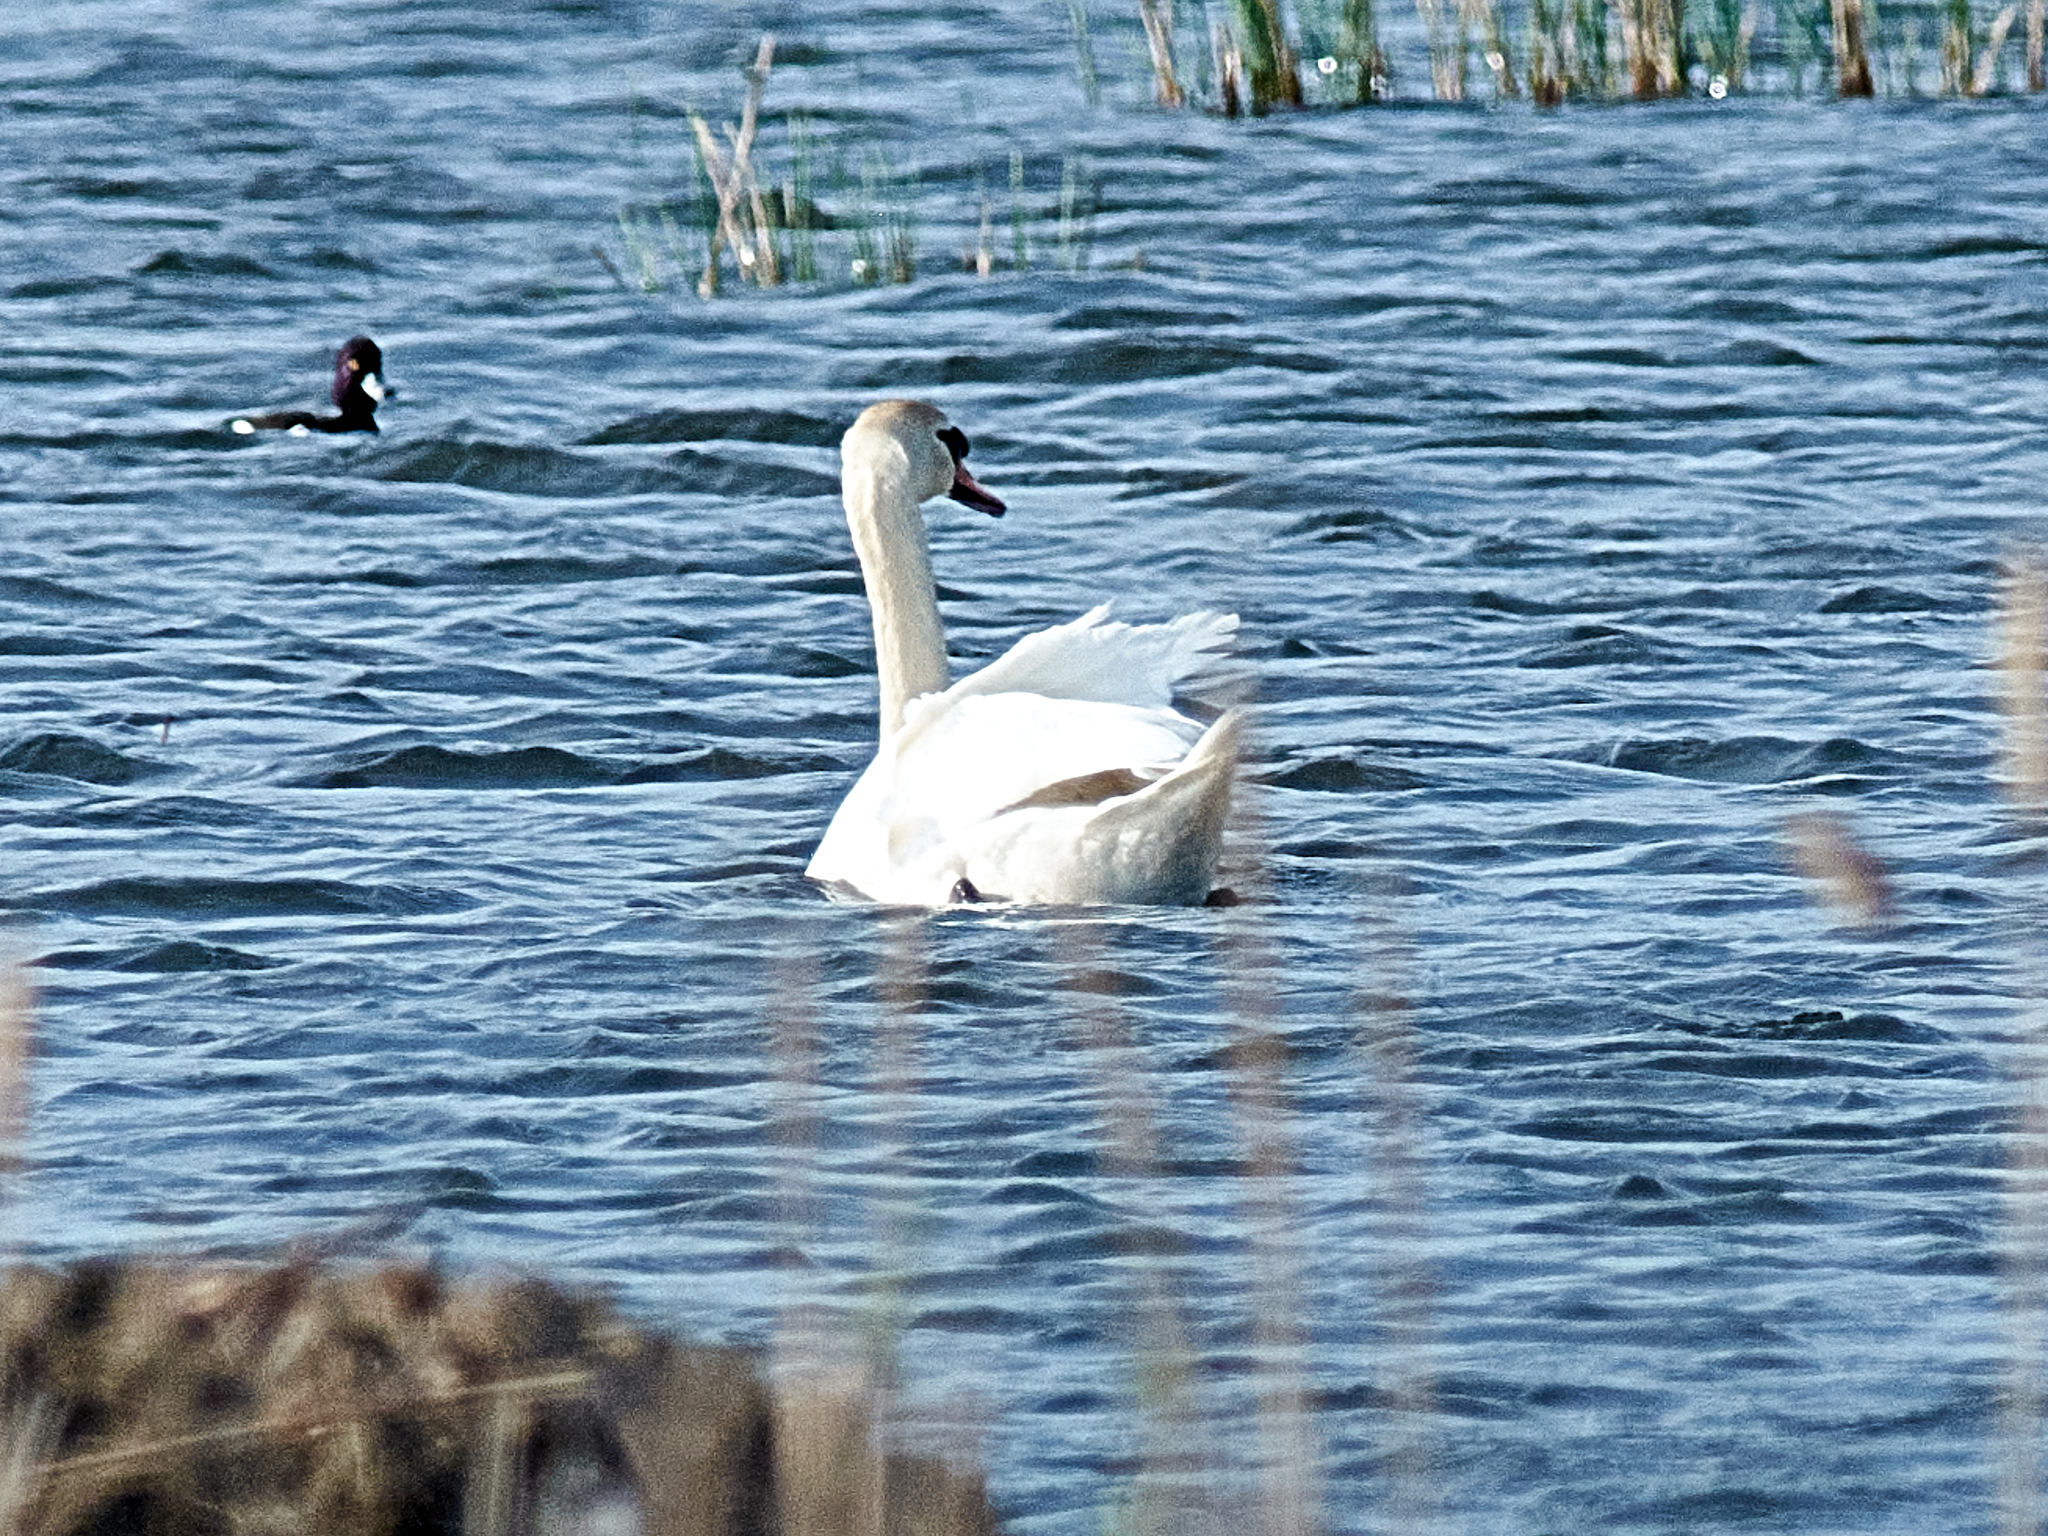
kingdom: Animalia
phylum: Chordata
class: Aves
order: Anseriformes
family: Anatidae
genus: Cygnus
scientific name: Cygnus olor
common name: Mute swan
